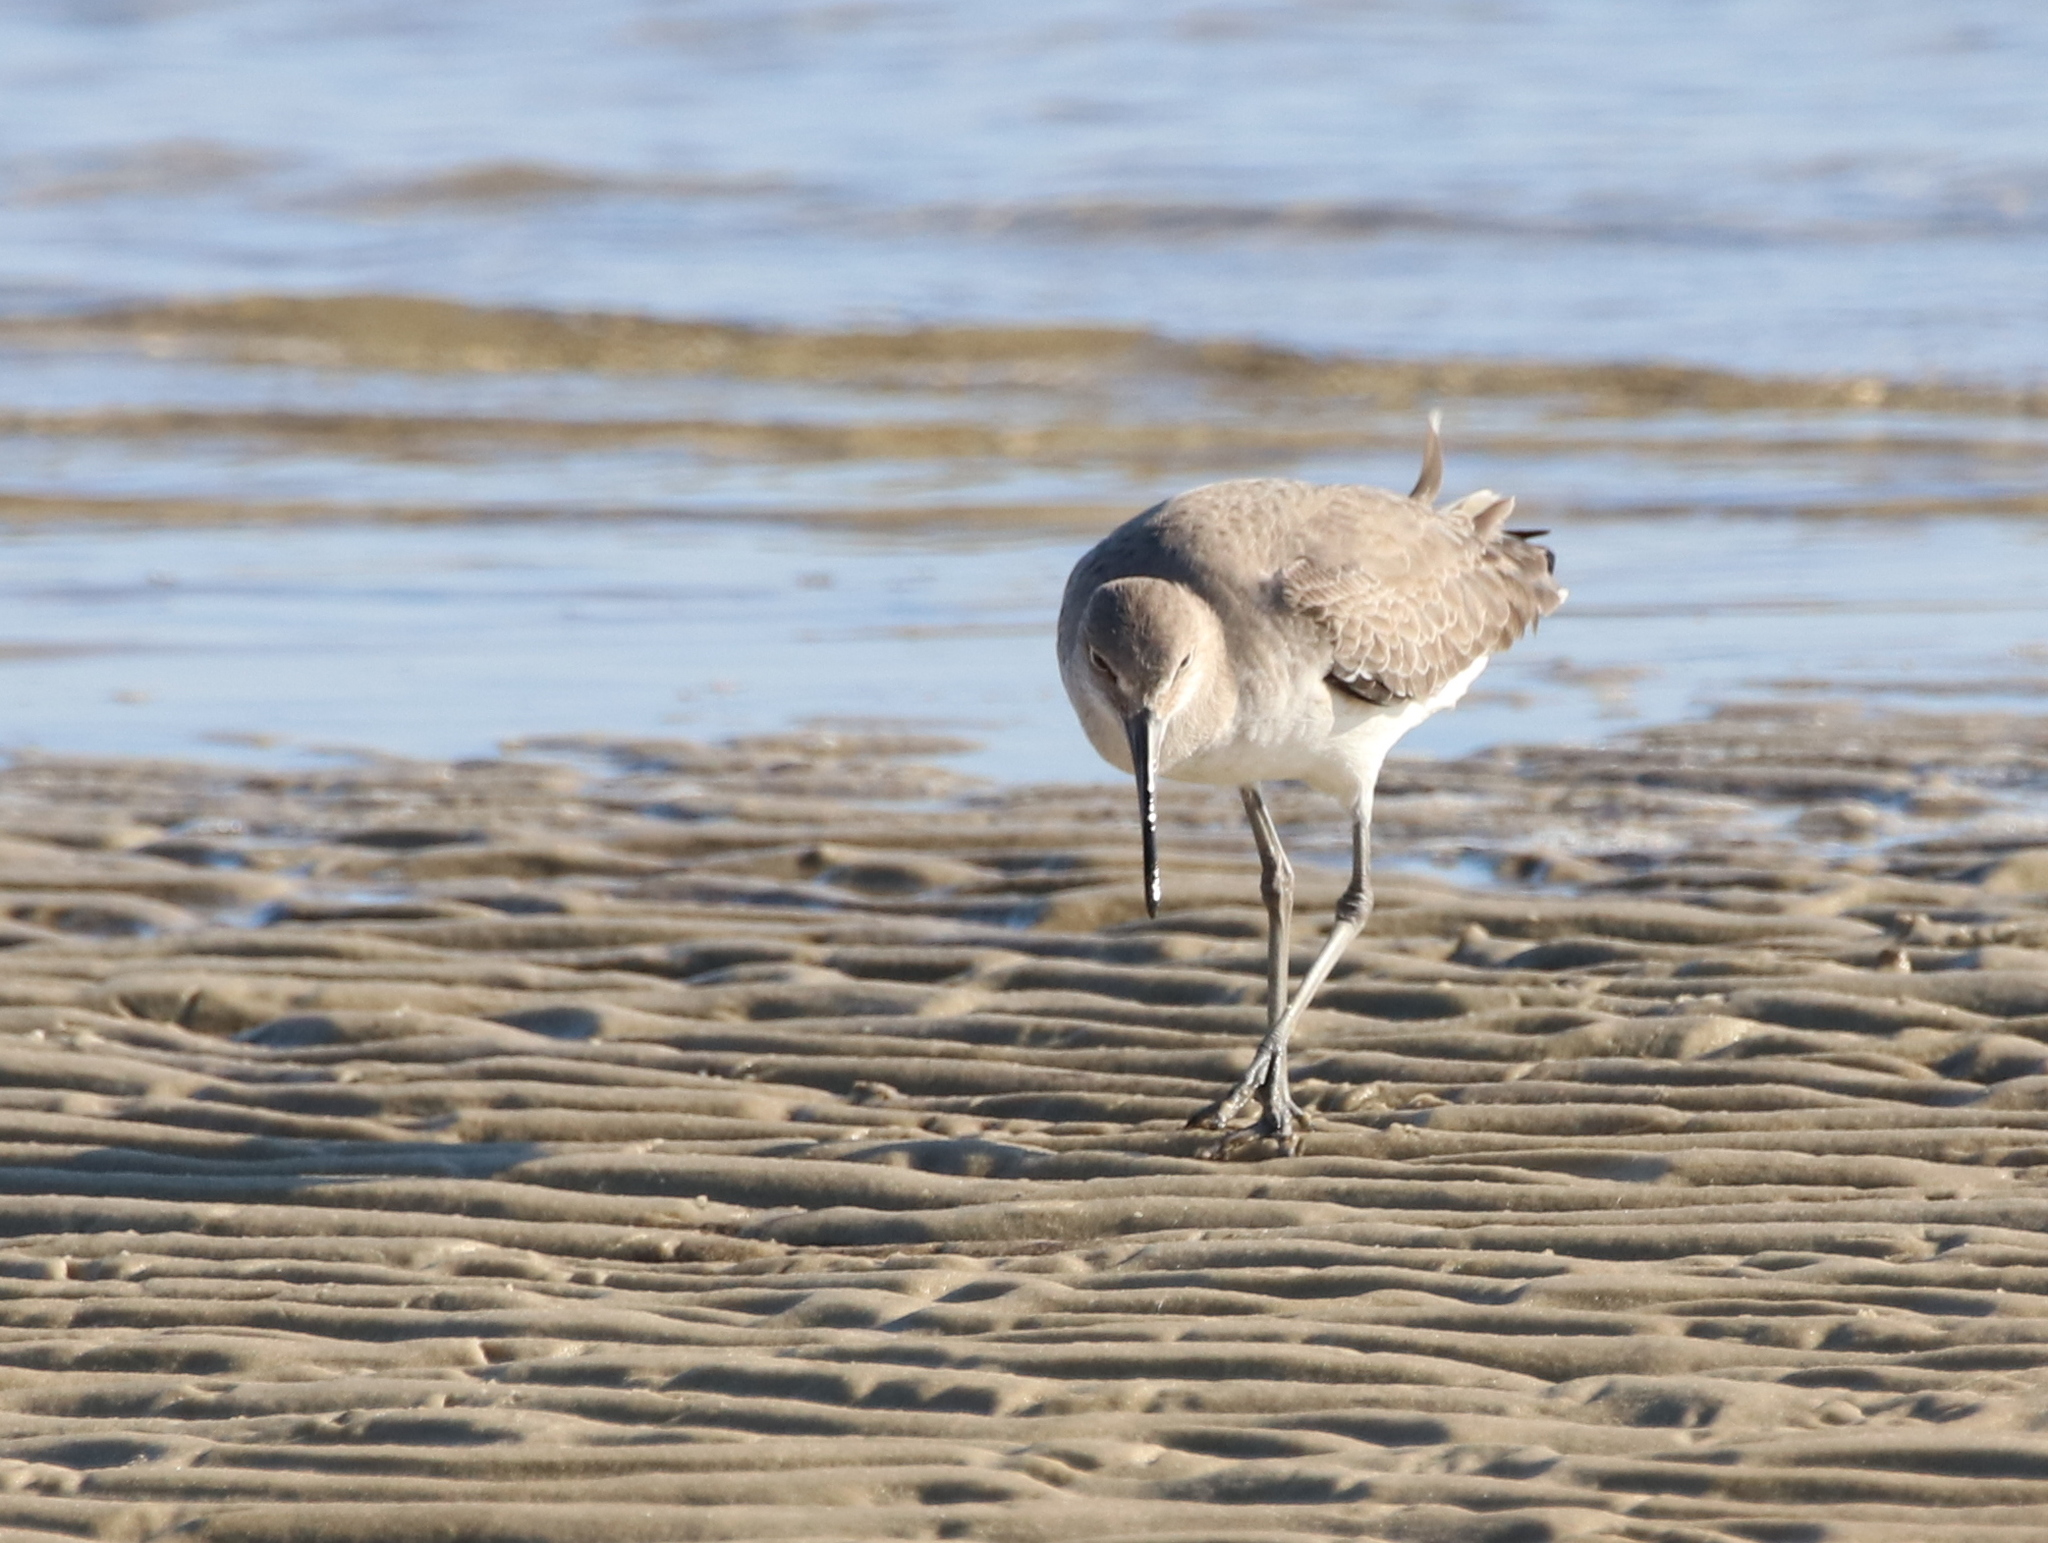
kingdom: Animalia
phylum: Chordata
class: Aves
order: Charadriiformes
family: Scolopacidae
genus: Tringa
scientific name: Tringa semipalmata
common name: Willet
